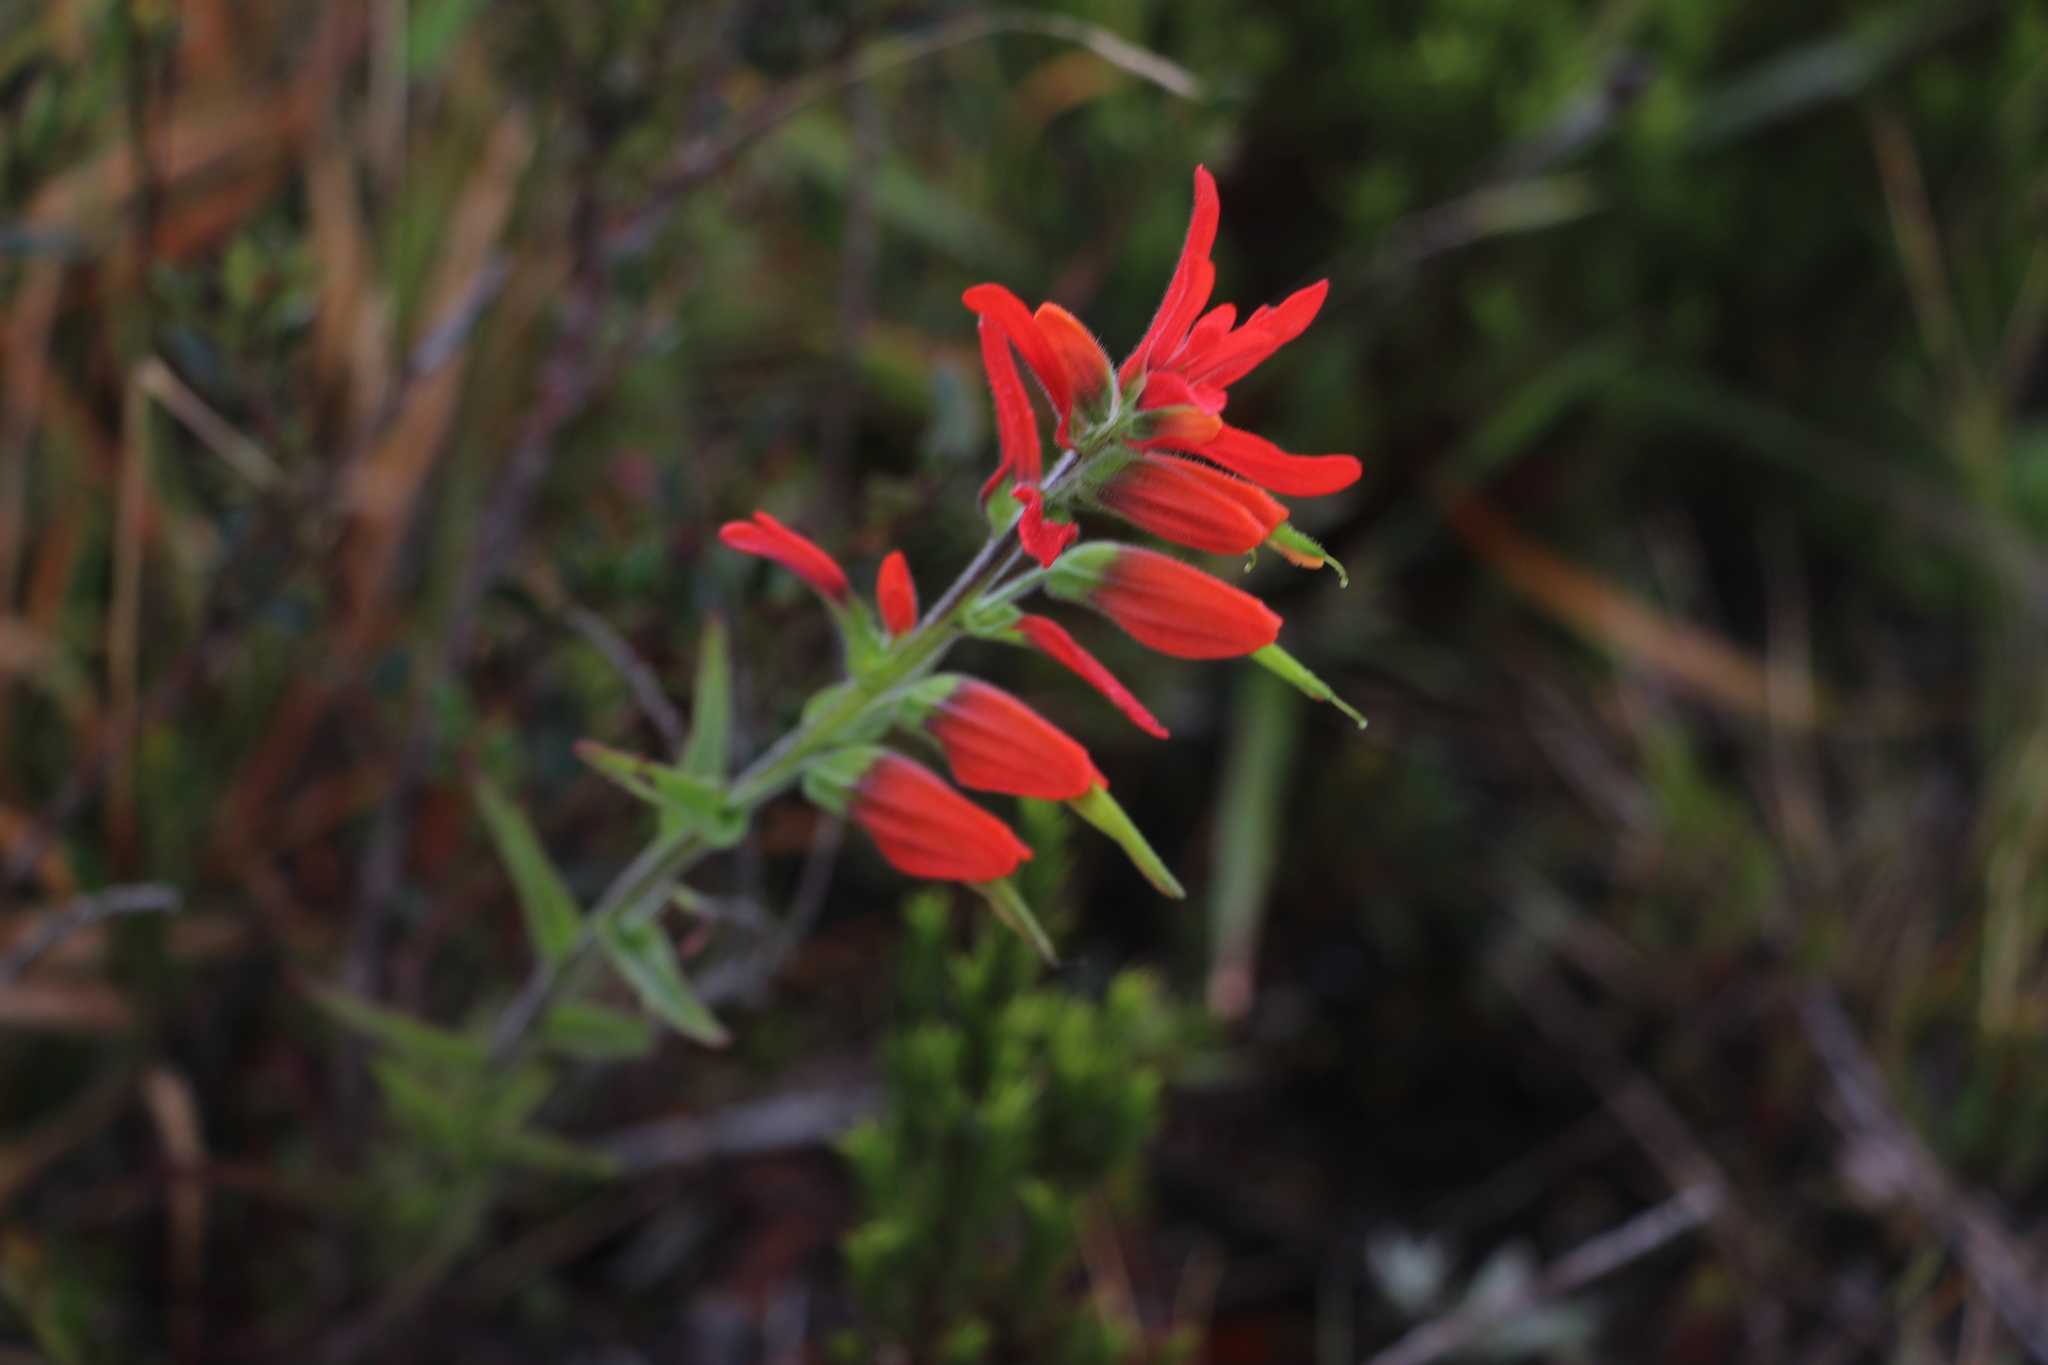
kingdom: Plantae
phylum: Tracheophyta
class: Magnoliopsida
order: Lamiales
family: Orobanchaceae
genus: Castilleja
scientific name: Castilleja integrifolia
